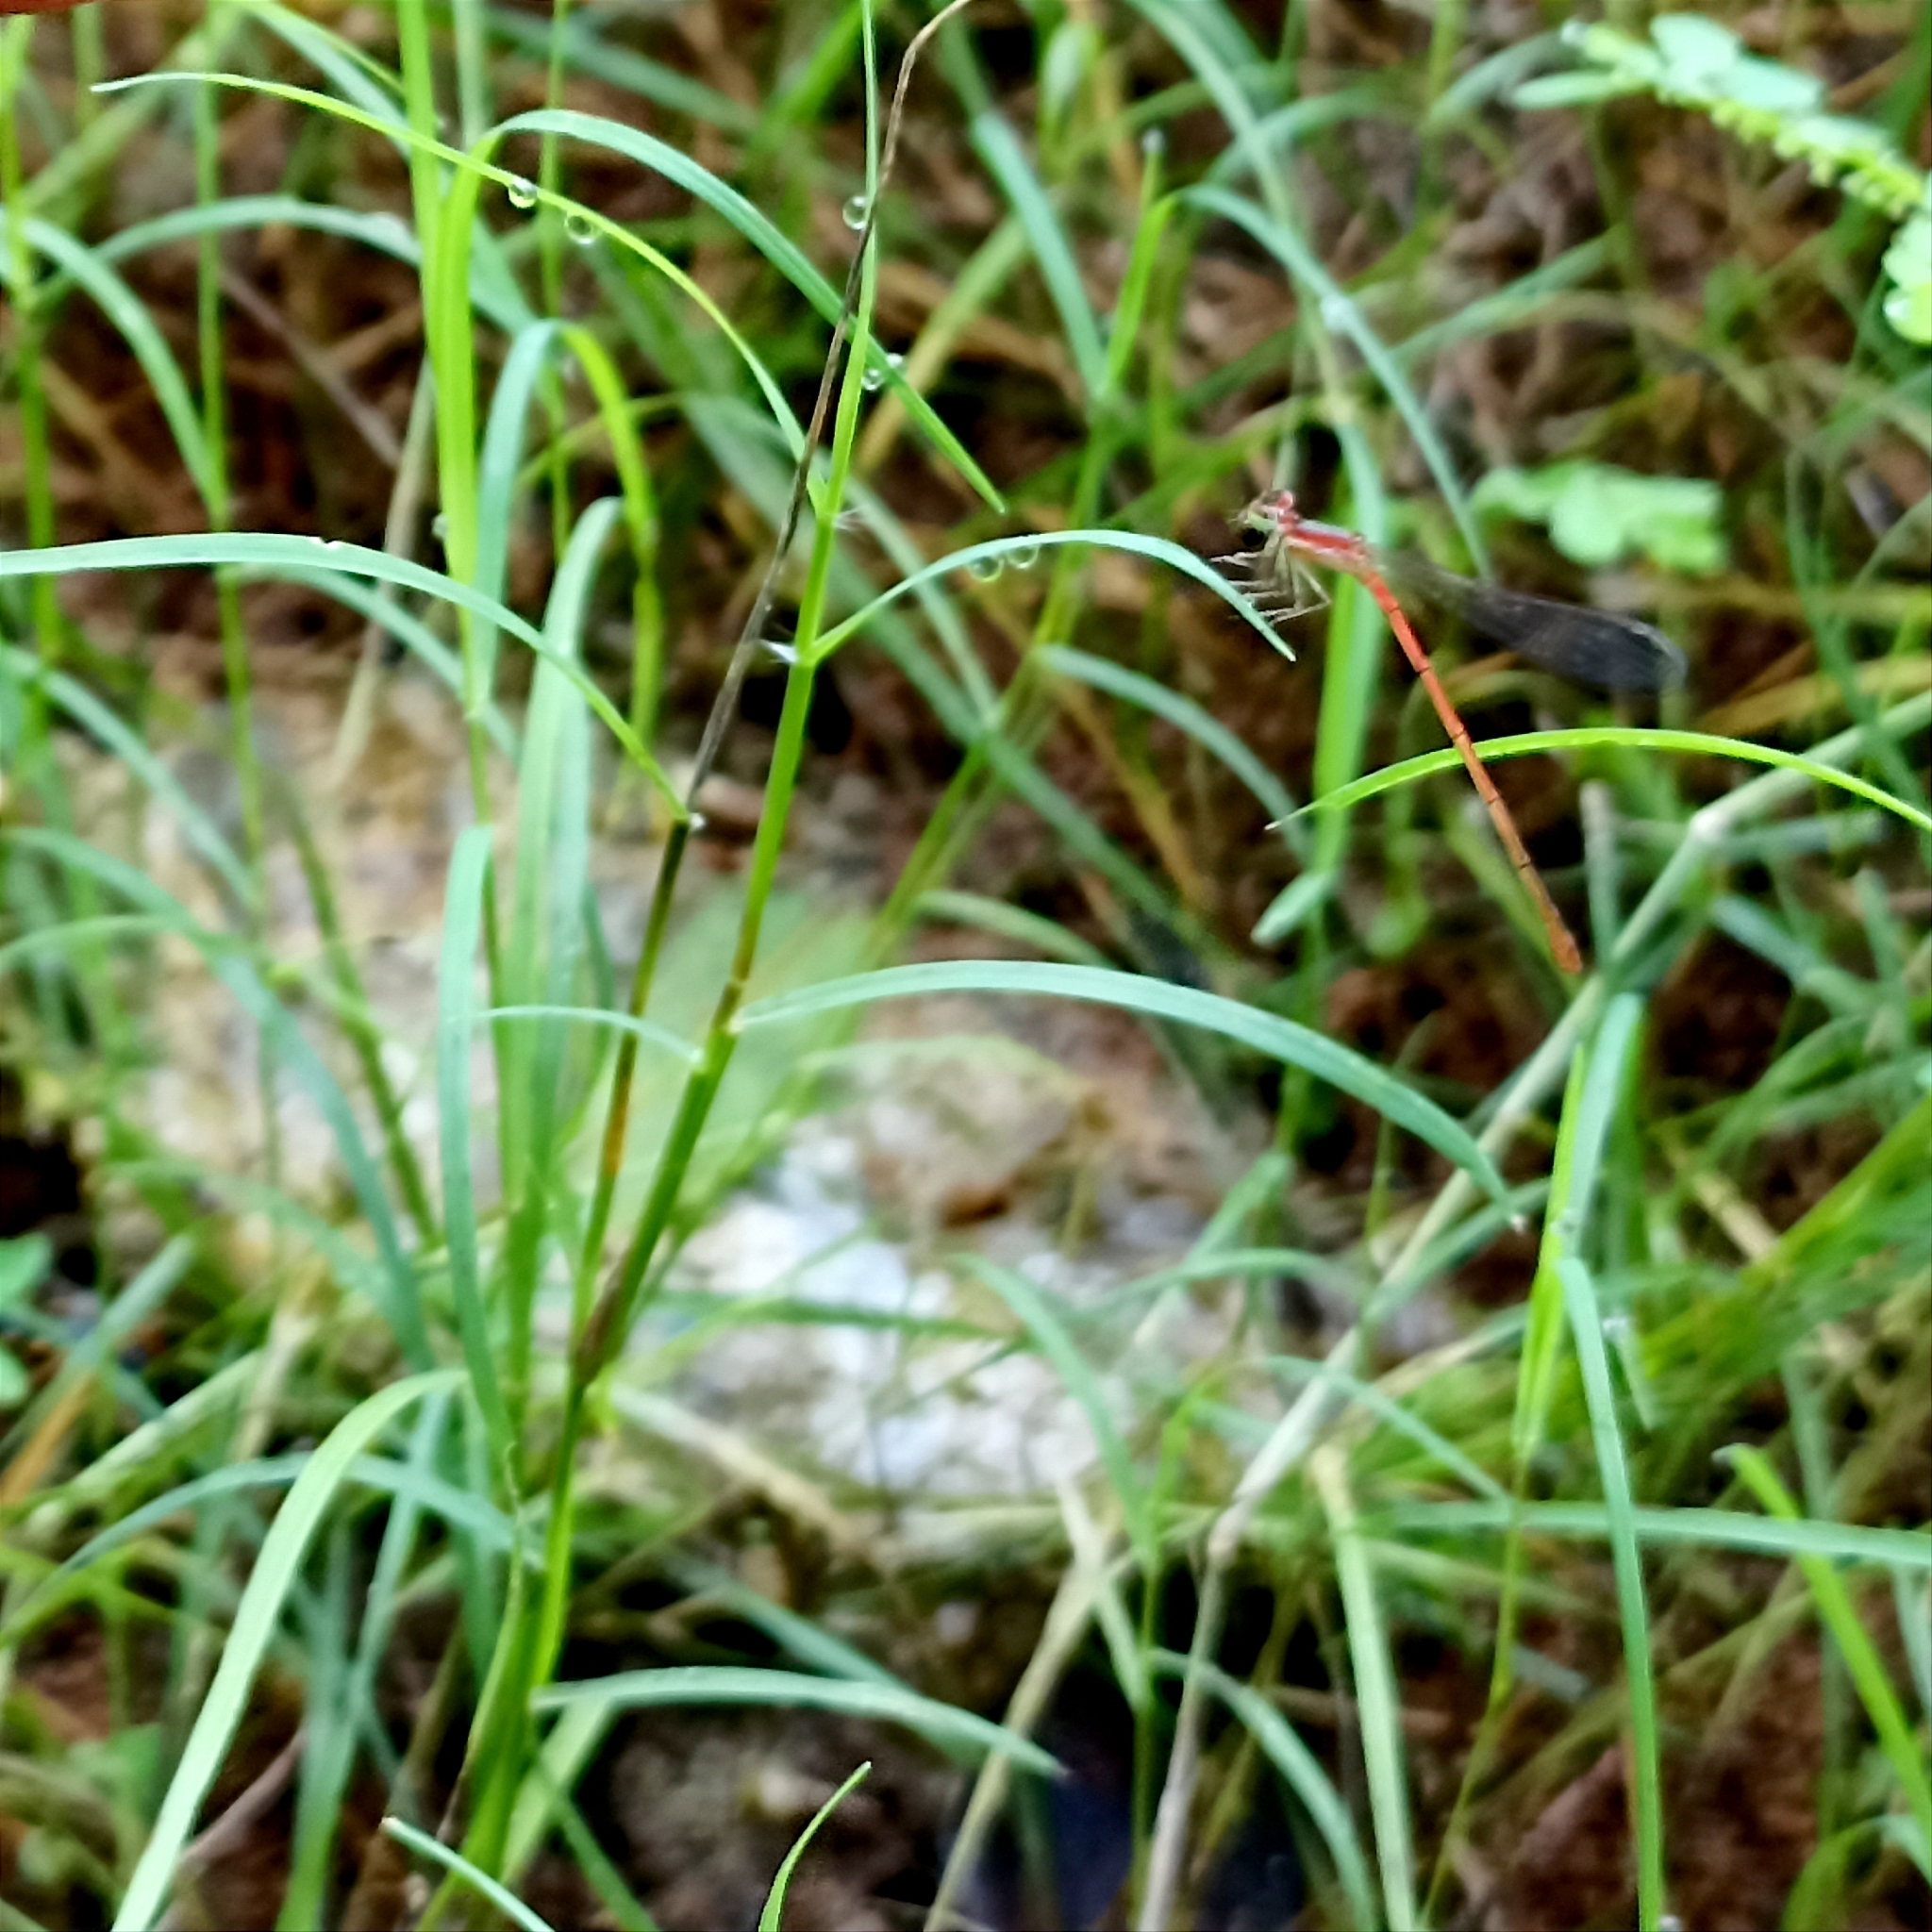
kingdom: Animalia
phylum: Arthropoda
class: Insecta
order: Odonata
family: Coenagrionidae
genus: Agriocnemis
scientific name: Agriocnemis pygmaea
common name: Pygmy wisp
